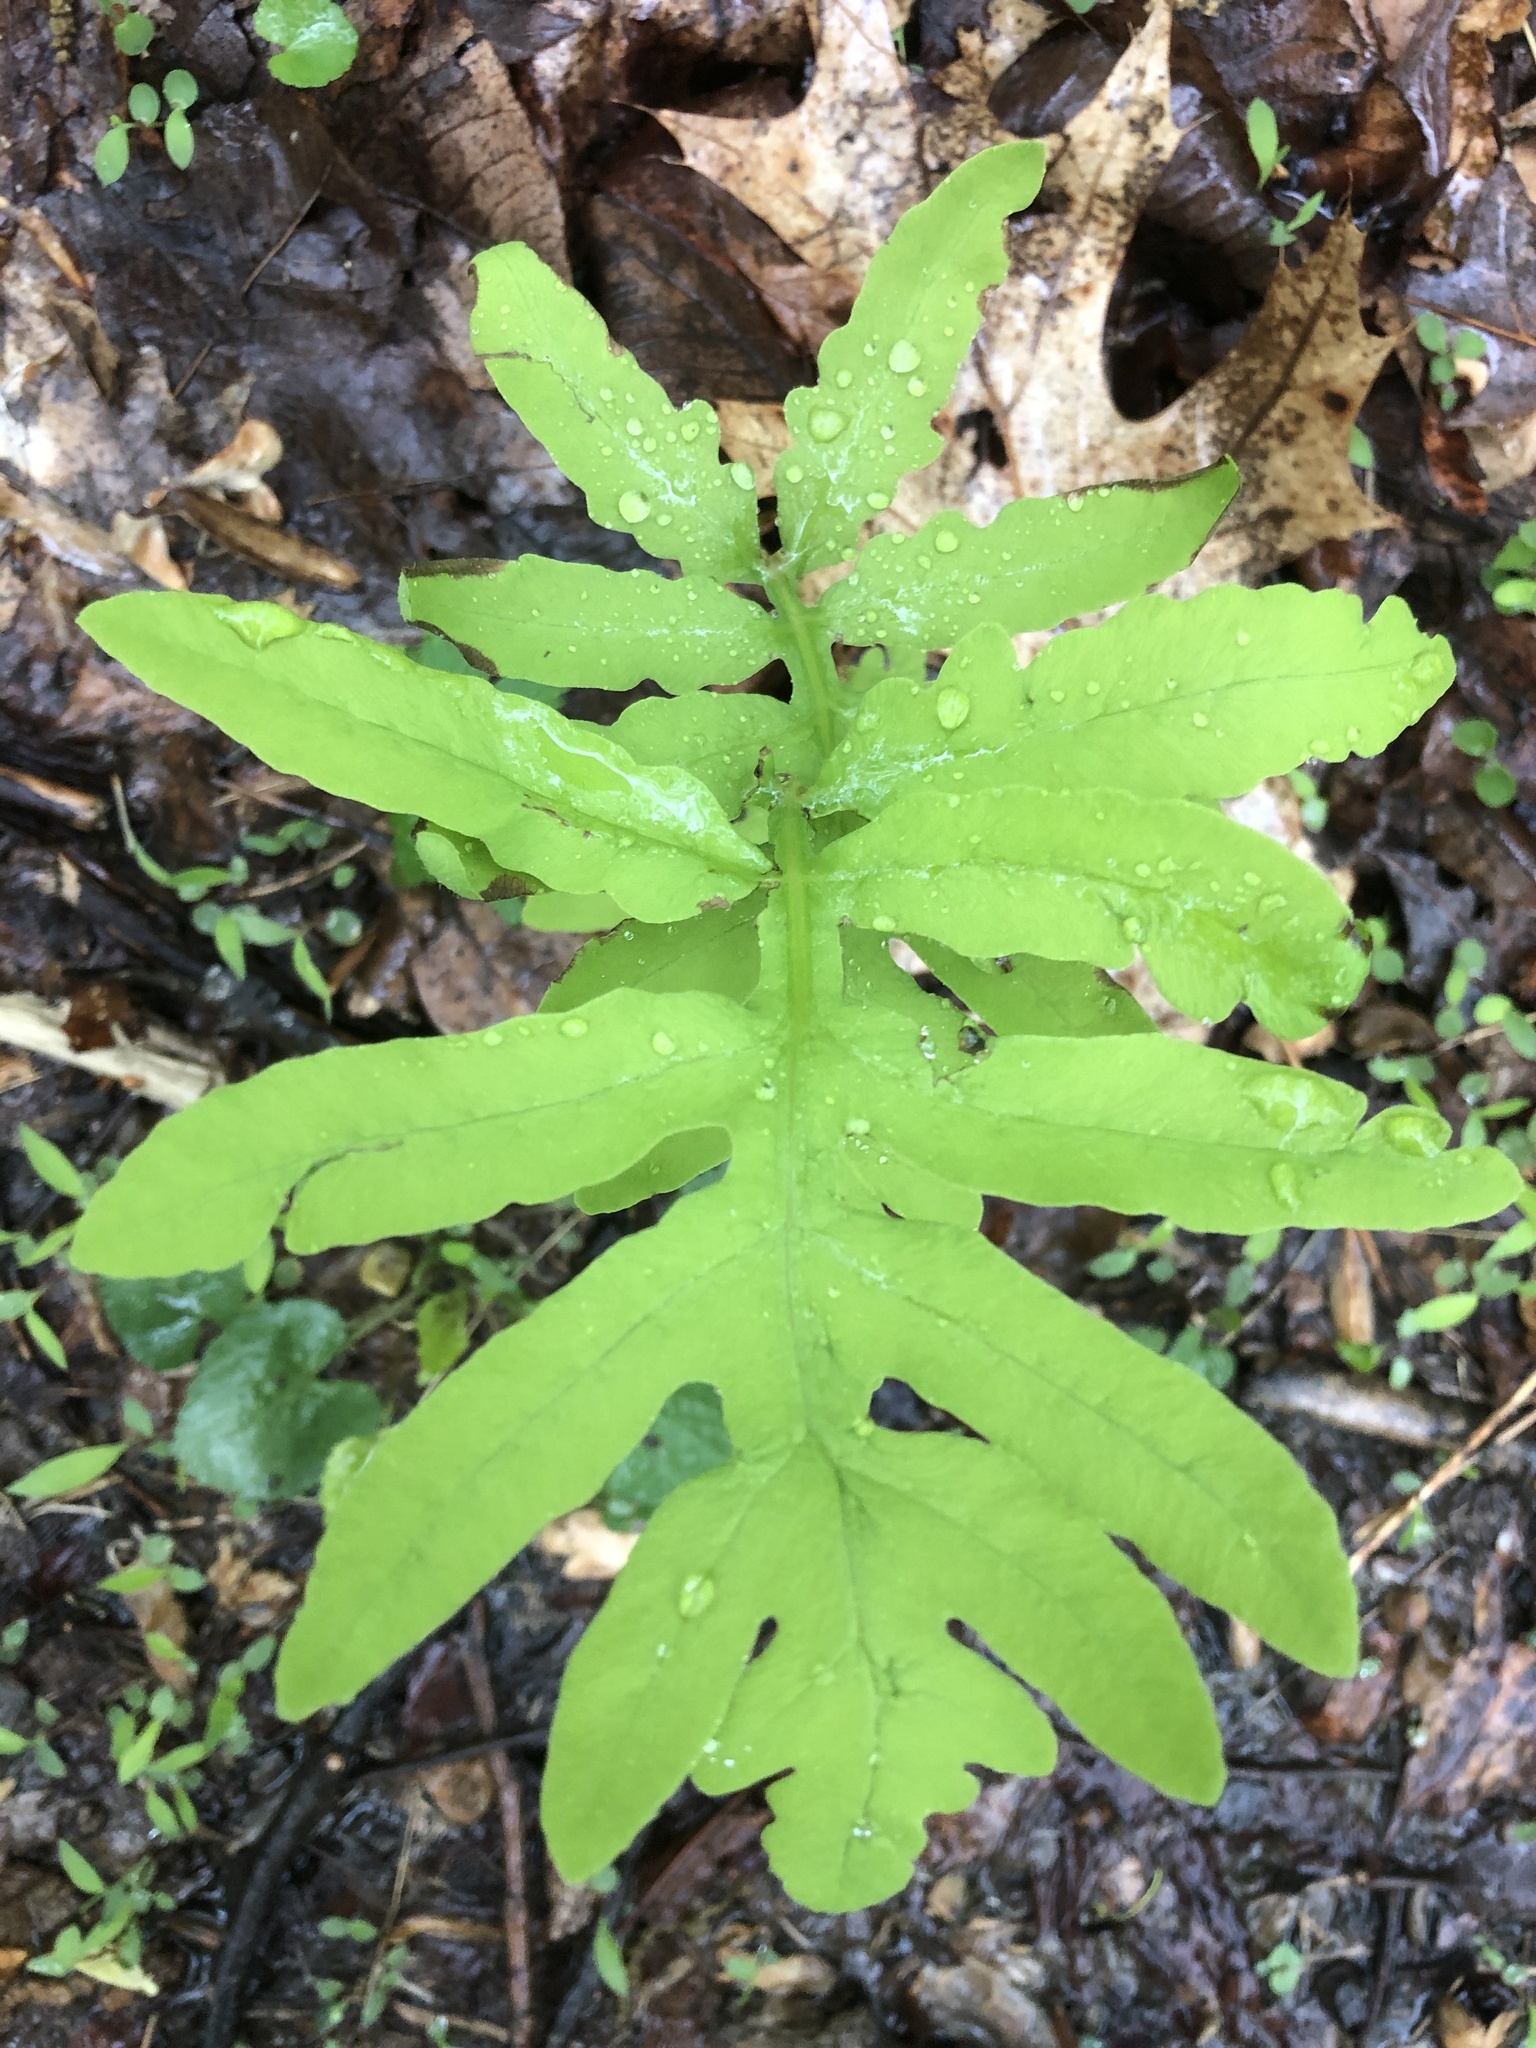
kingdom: Plantae
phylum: Tracheophyta
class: Polypodiopsida
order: Polypodiales
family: Onocleaceae
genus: Onoclea
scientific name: Onoclea sensibilis
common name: Sensitive fern
